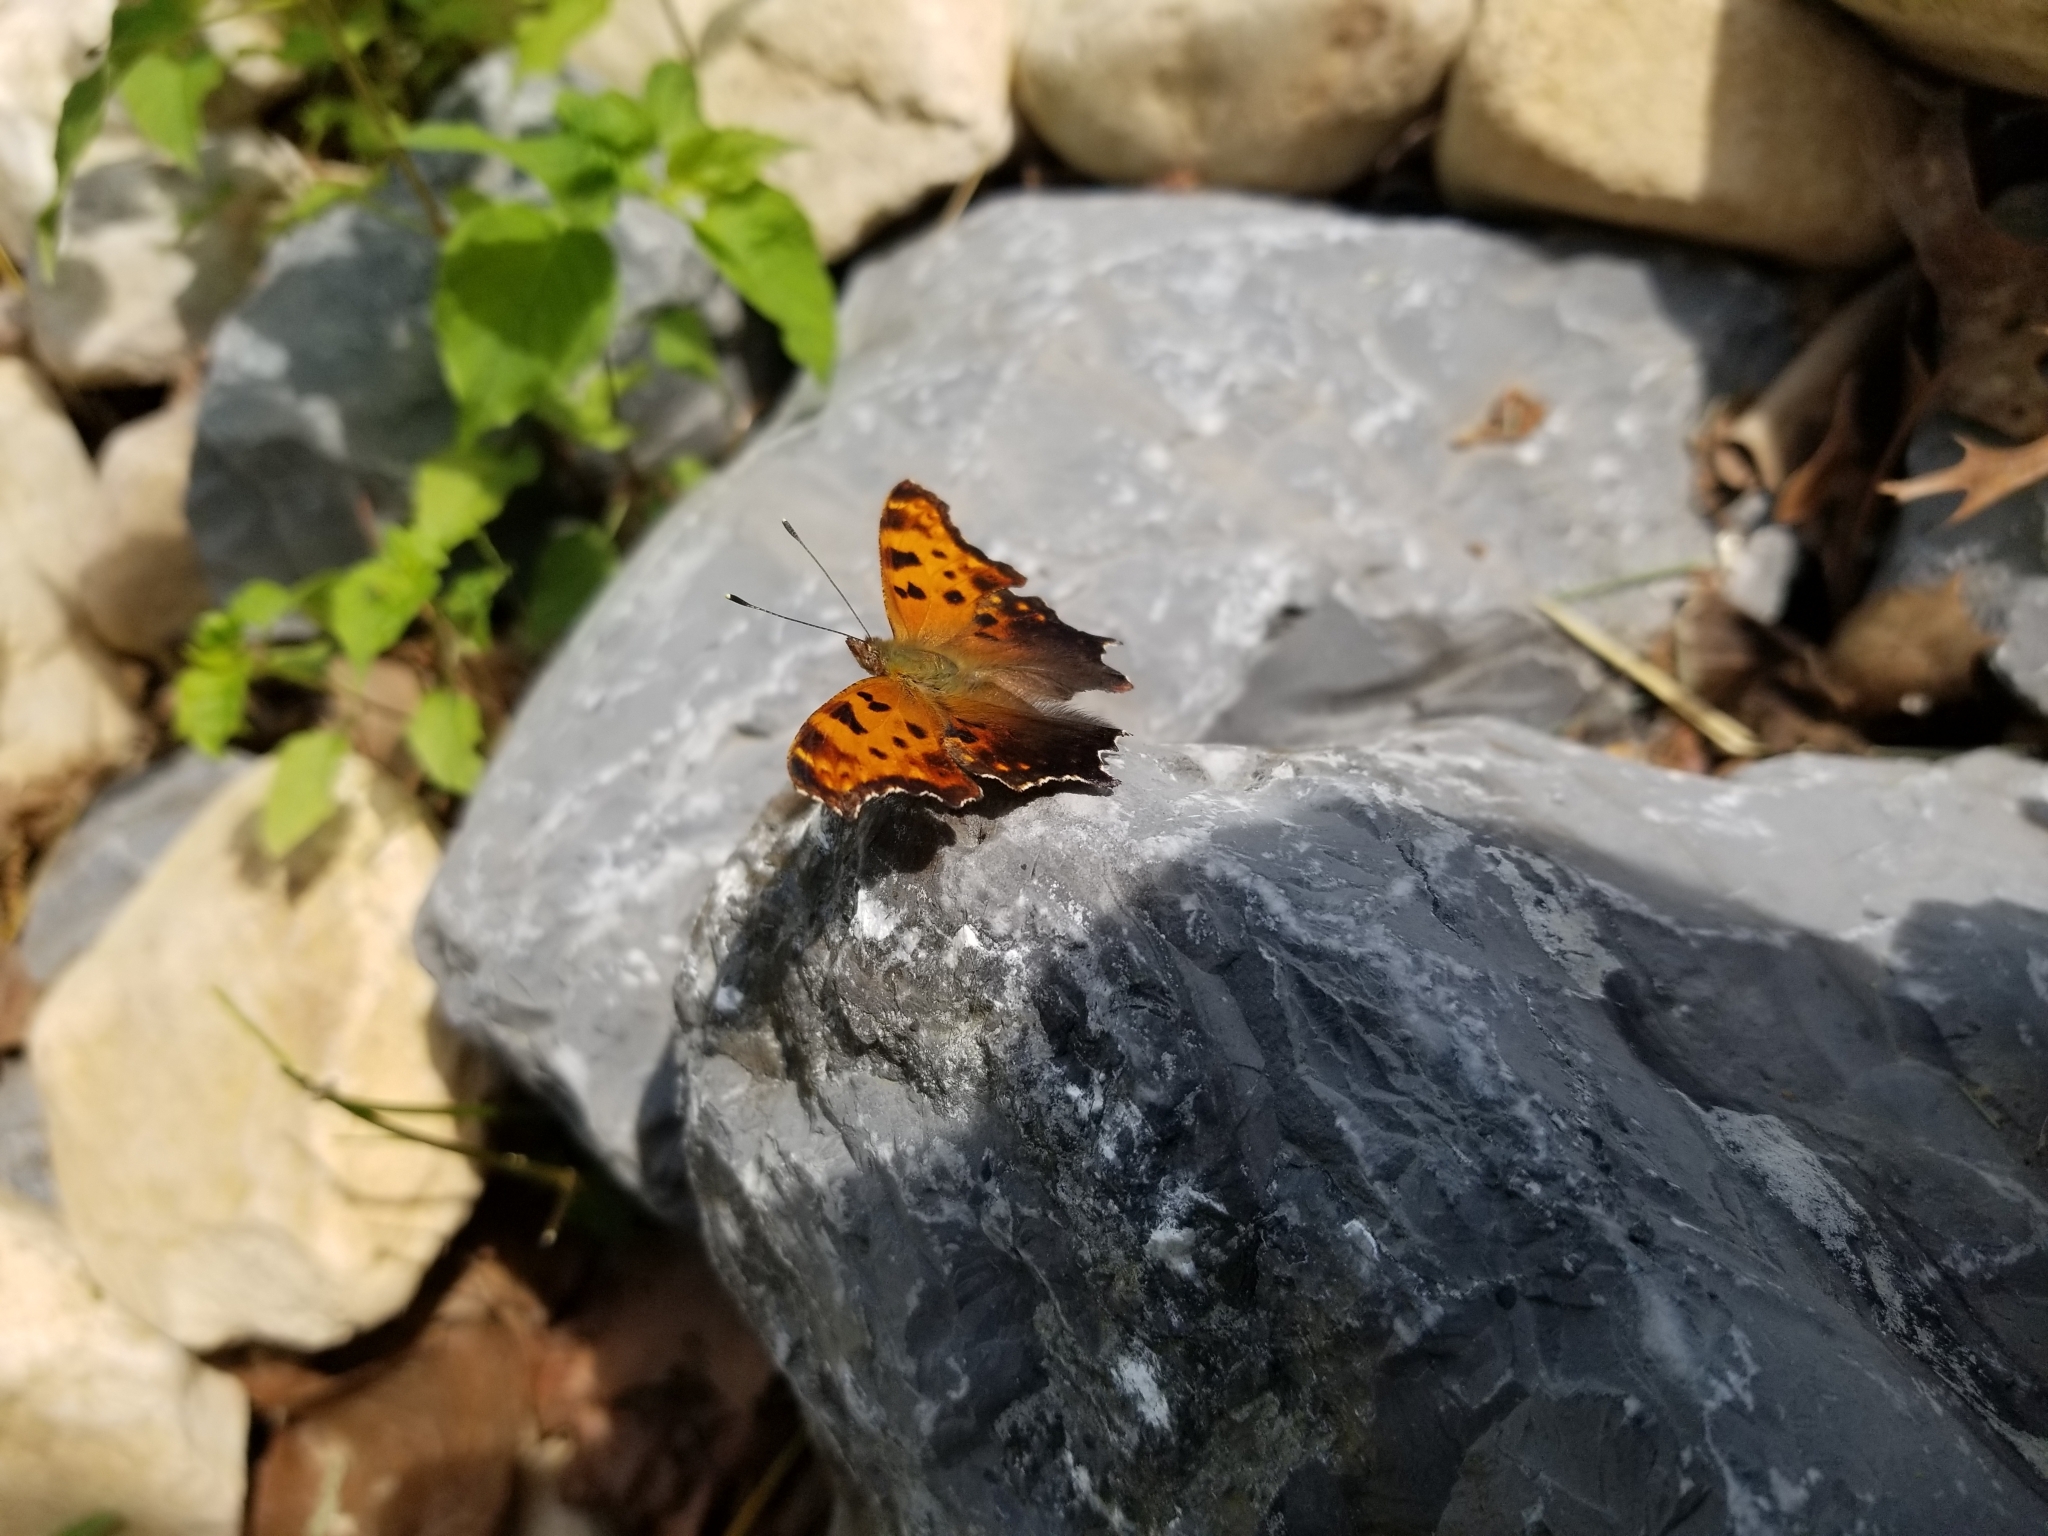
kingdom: Animalia
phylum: Arthropoda
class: Insecta
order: Lepidoptera
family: Nymphalidae
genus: Polygonia
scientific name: Polygonia comma
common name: Eastern comma
